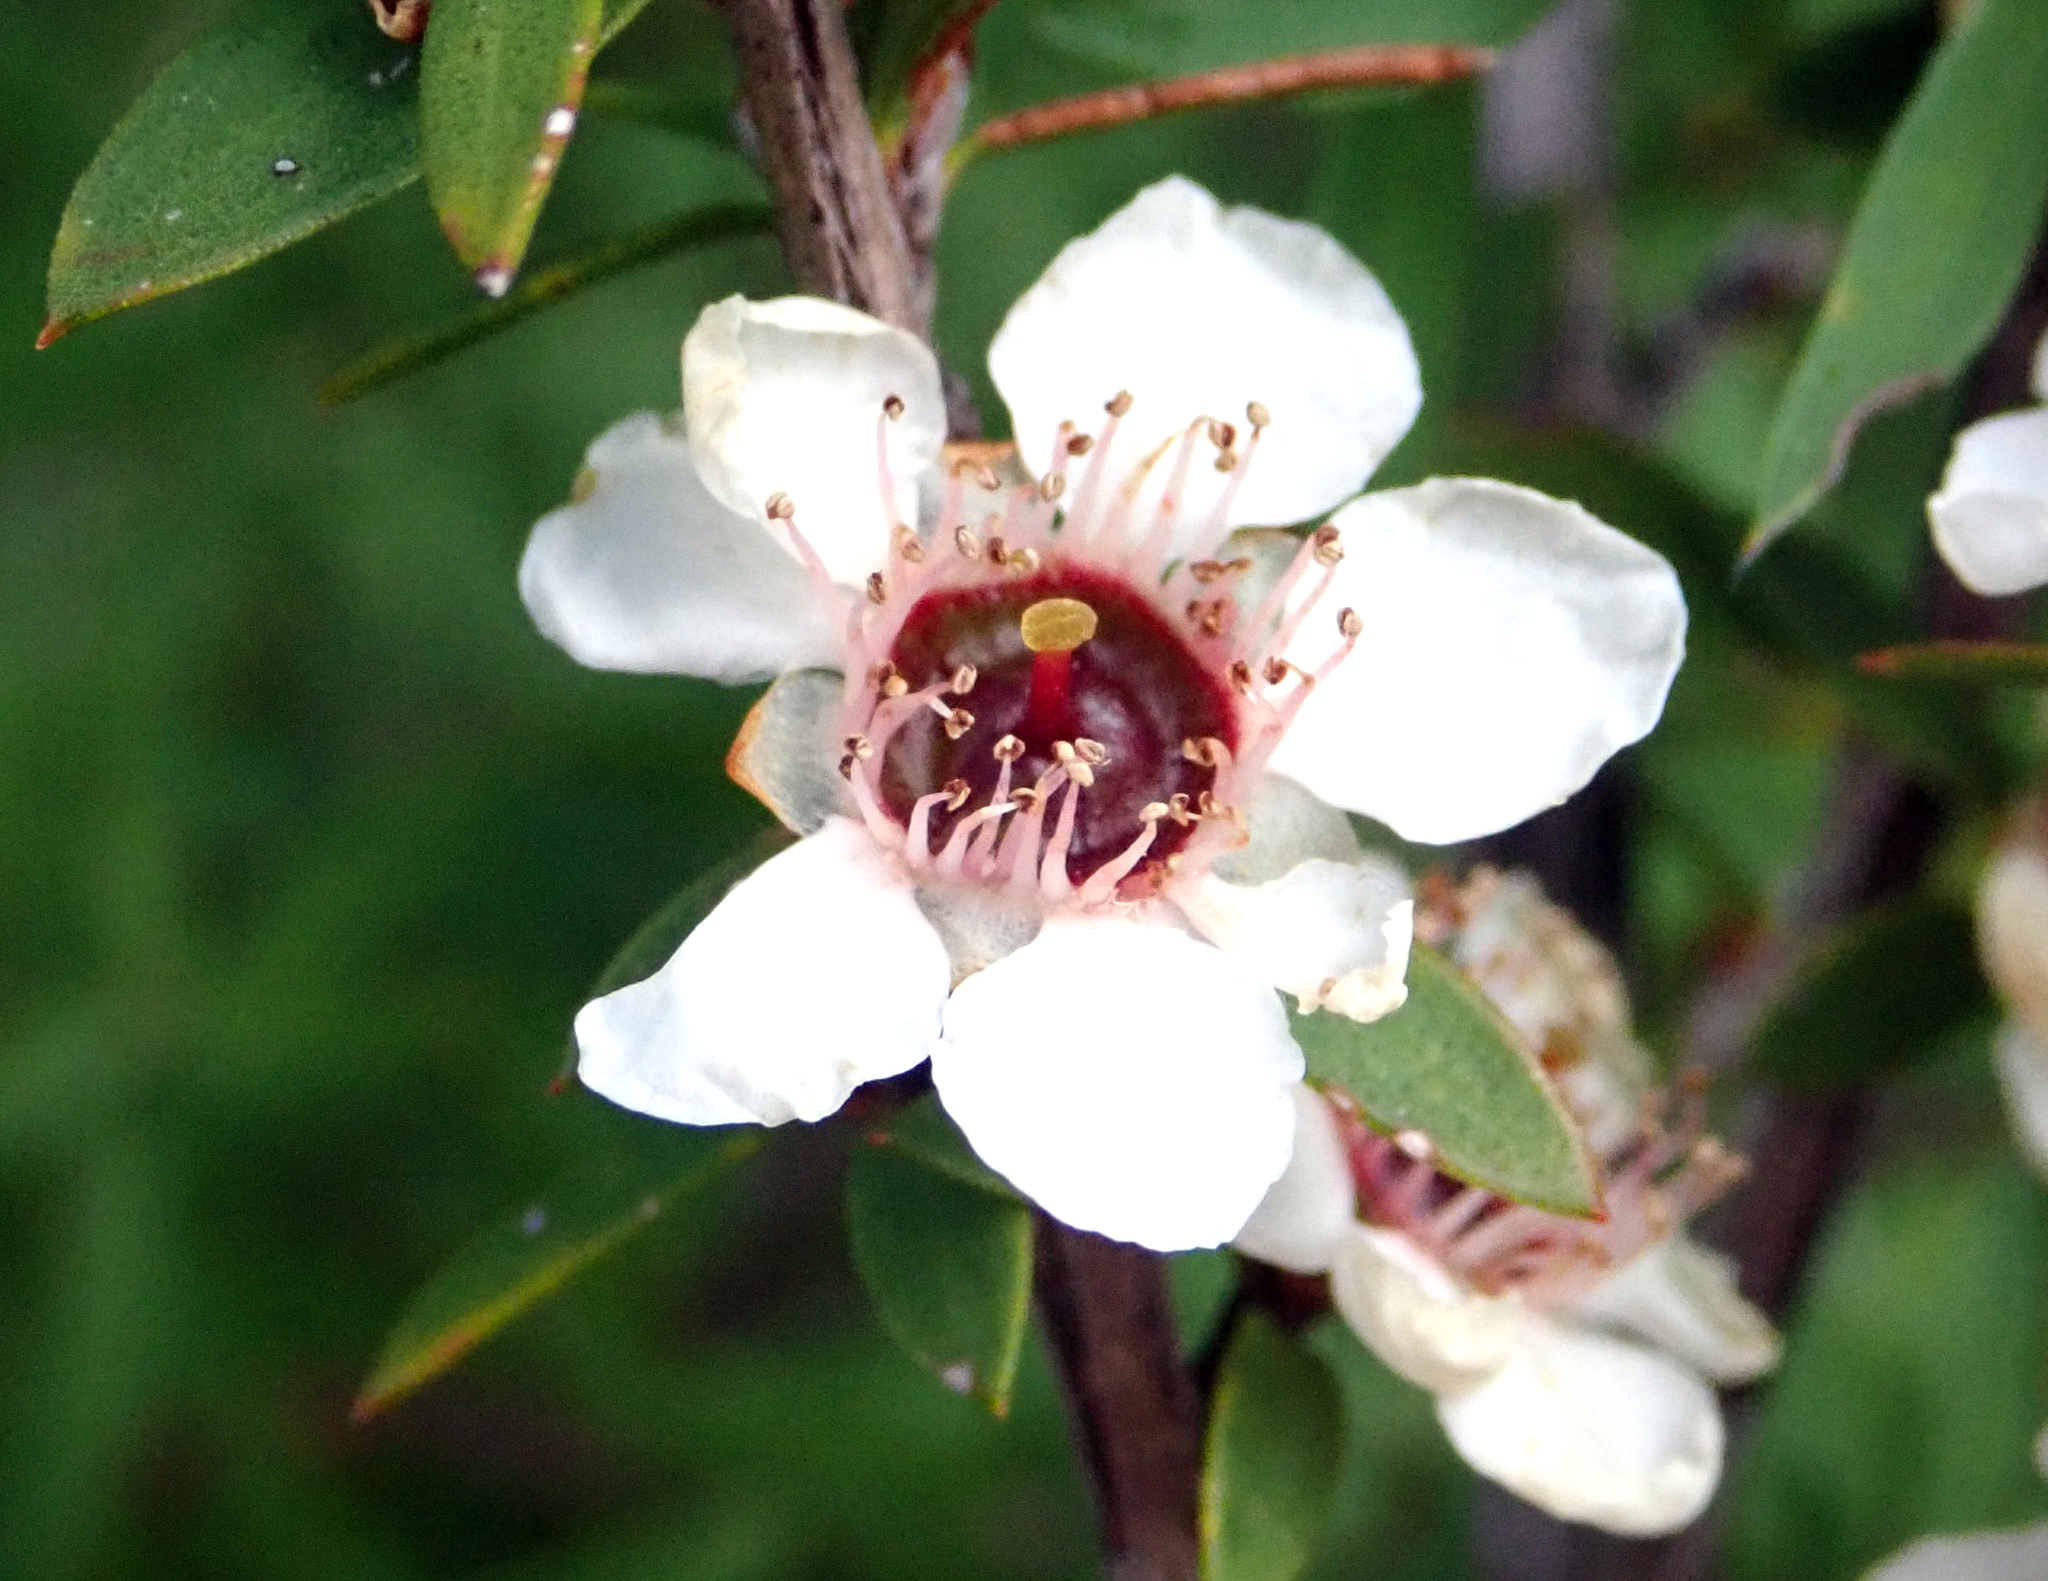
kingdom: Plantae
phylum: Tracheophyta
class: Magnoliopsida
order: Myrtales
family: Myrtaceae
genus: Leptospermum
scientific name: Leptospermum scoparium
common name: Broom tea-tree
